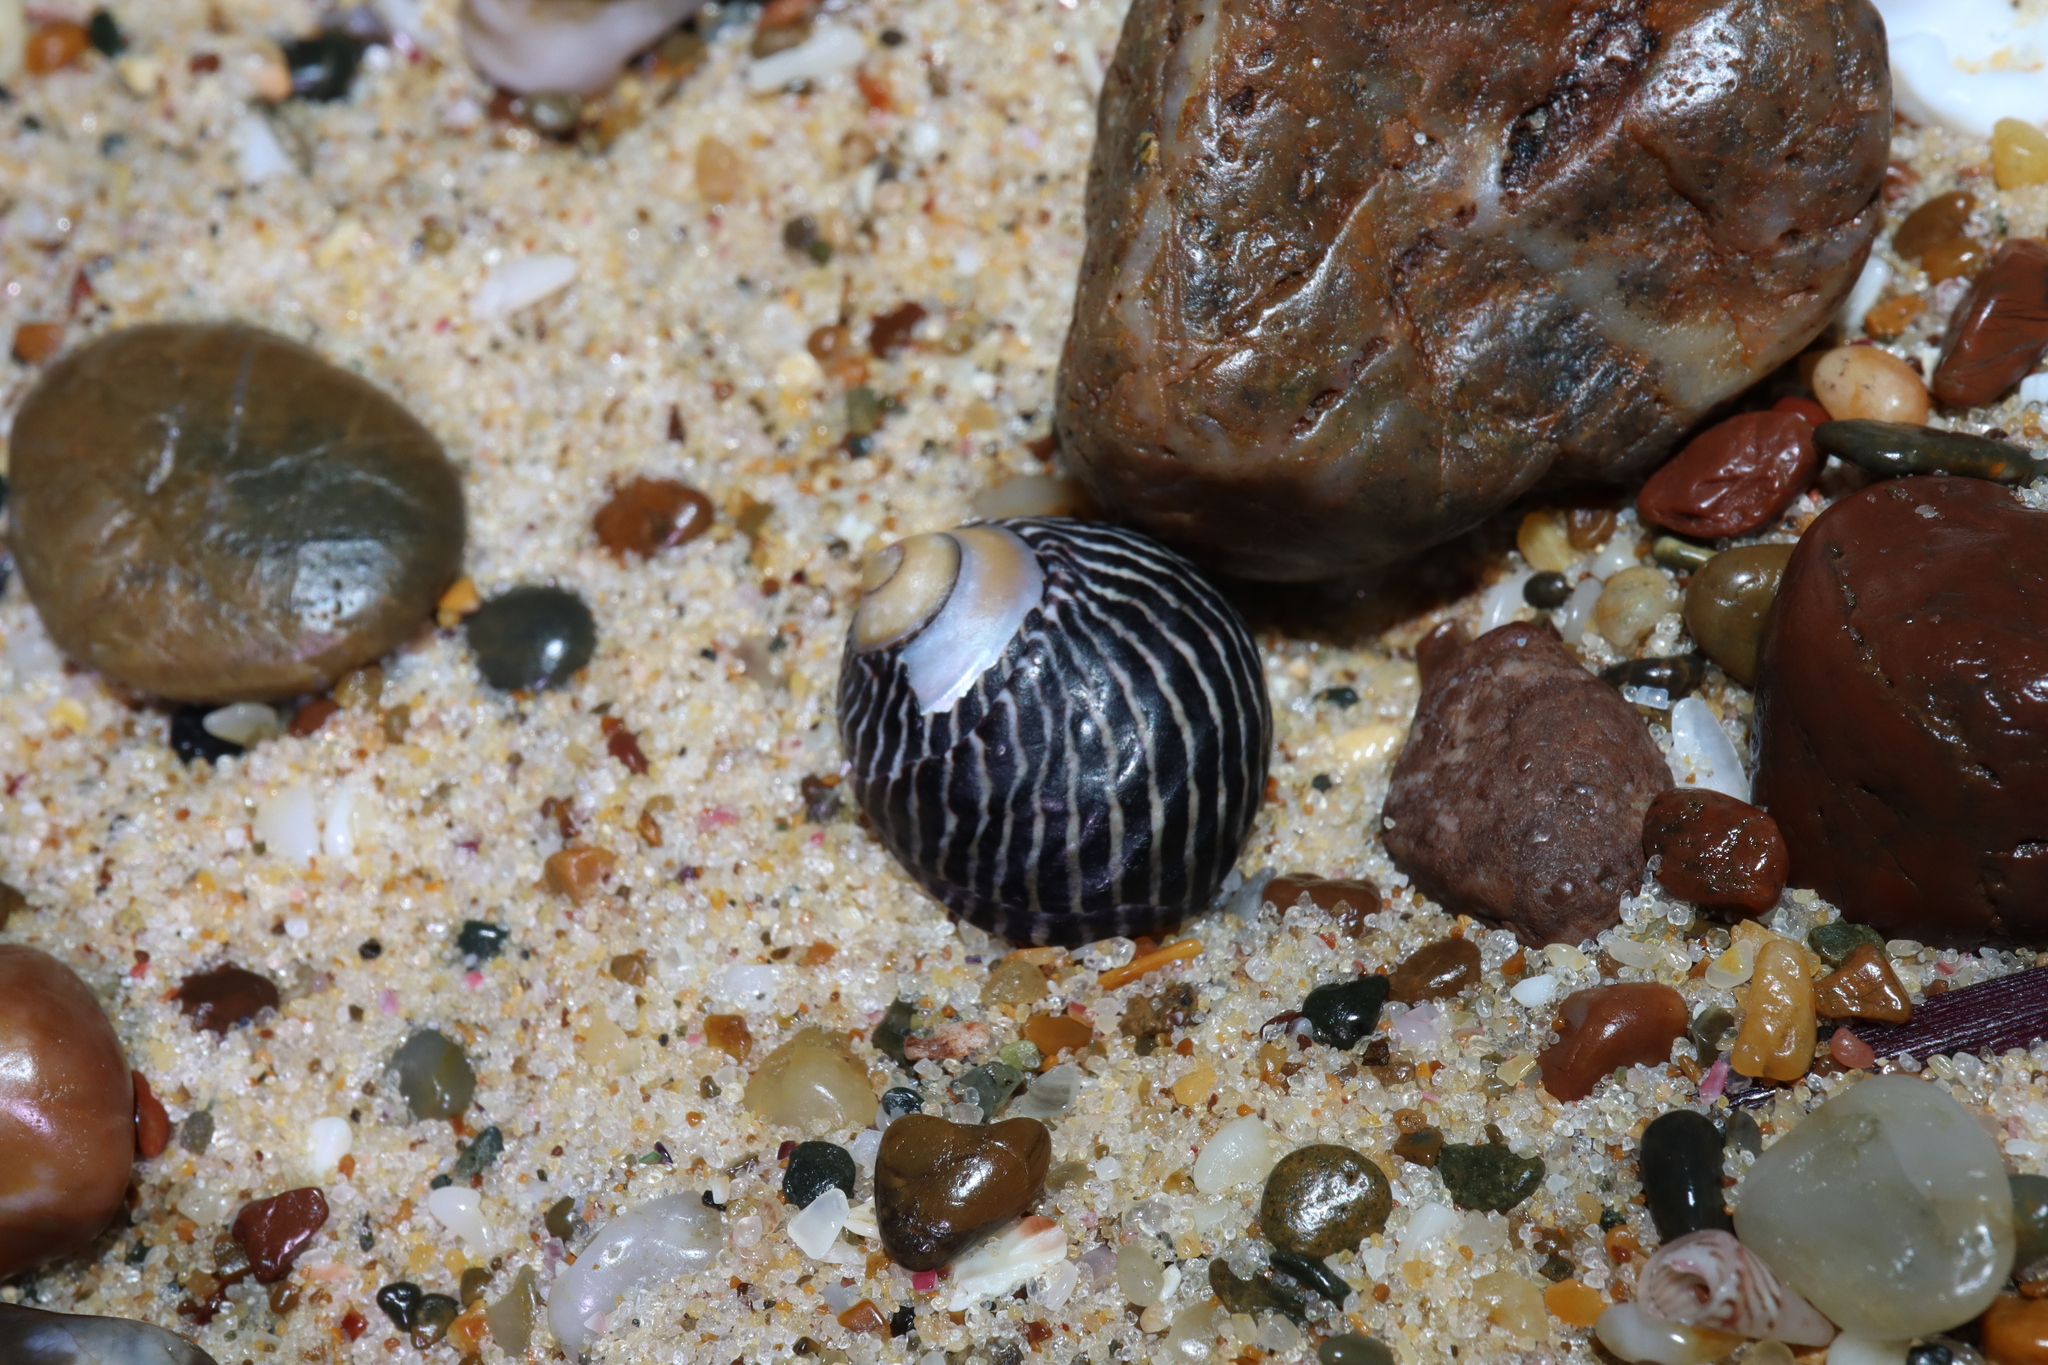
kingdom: Animalia
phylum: Mollusca
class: Gastropoda
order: Trochida
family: Trochidae
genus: Austrocochlea
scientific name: Austrocochlea porcata
